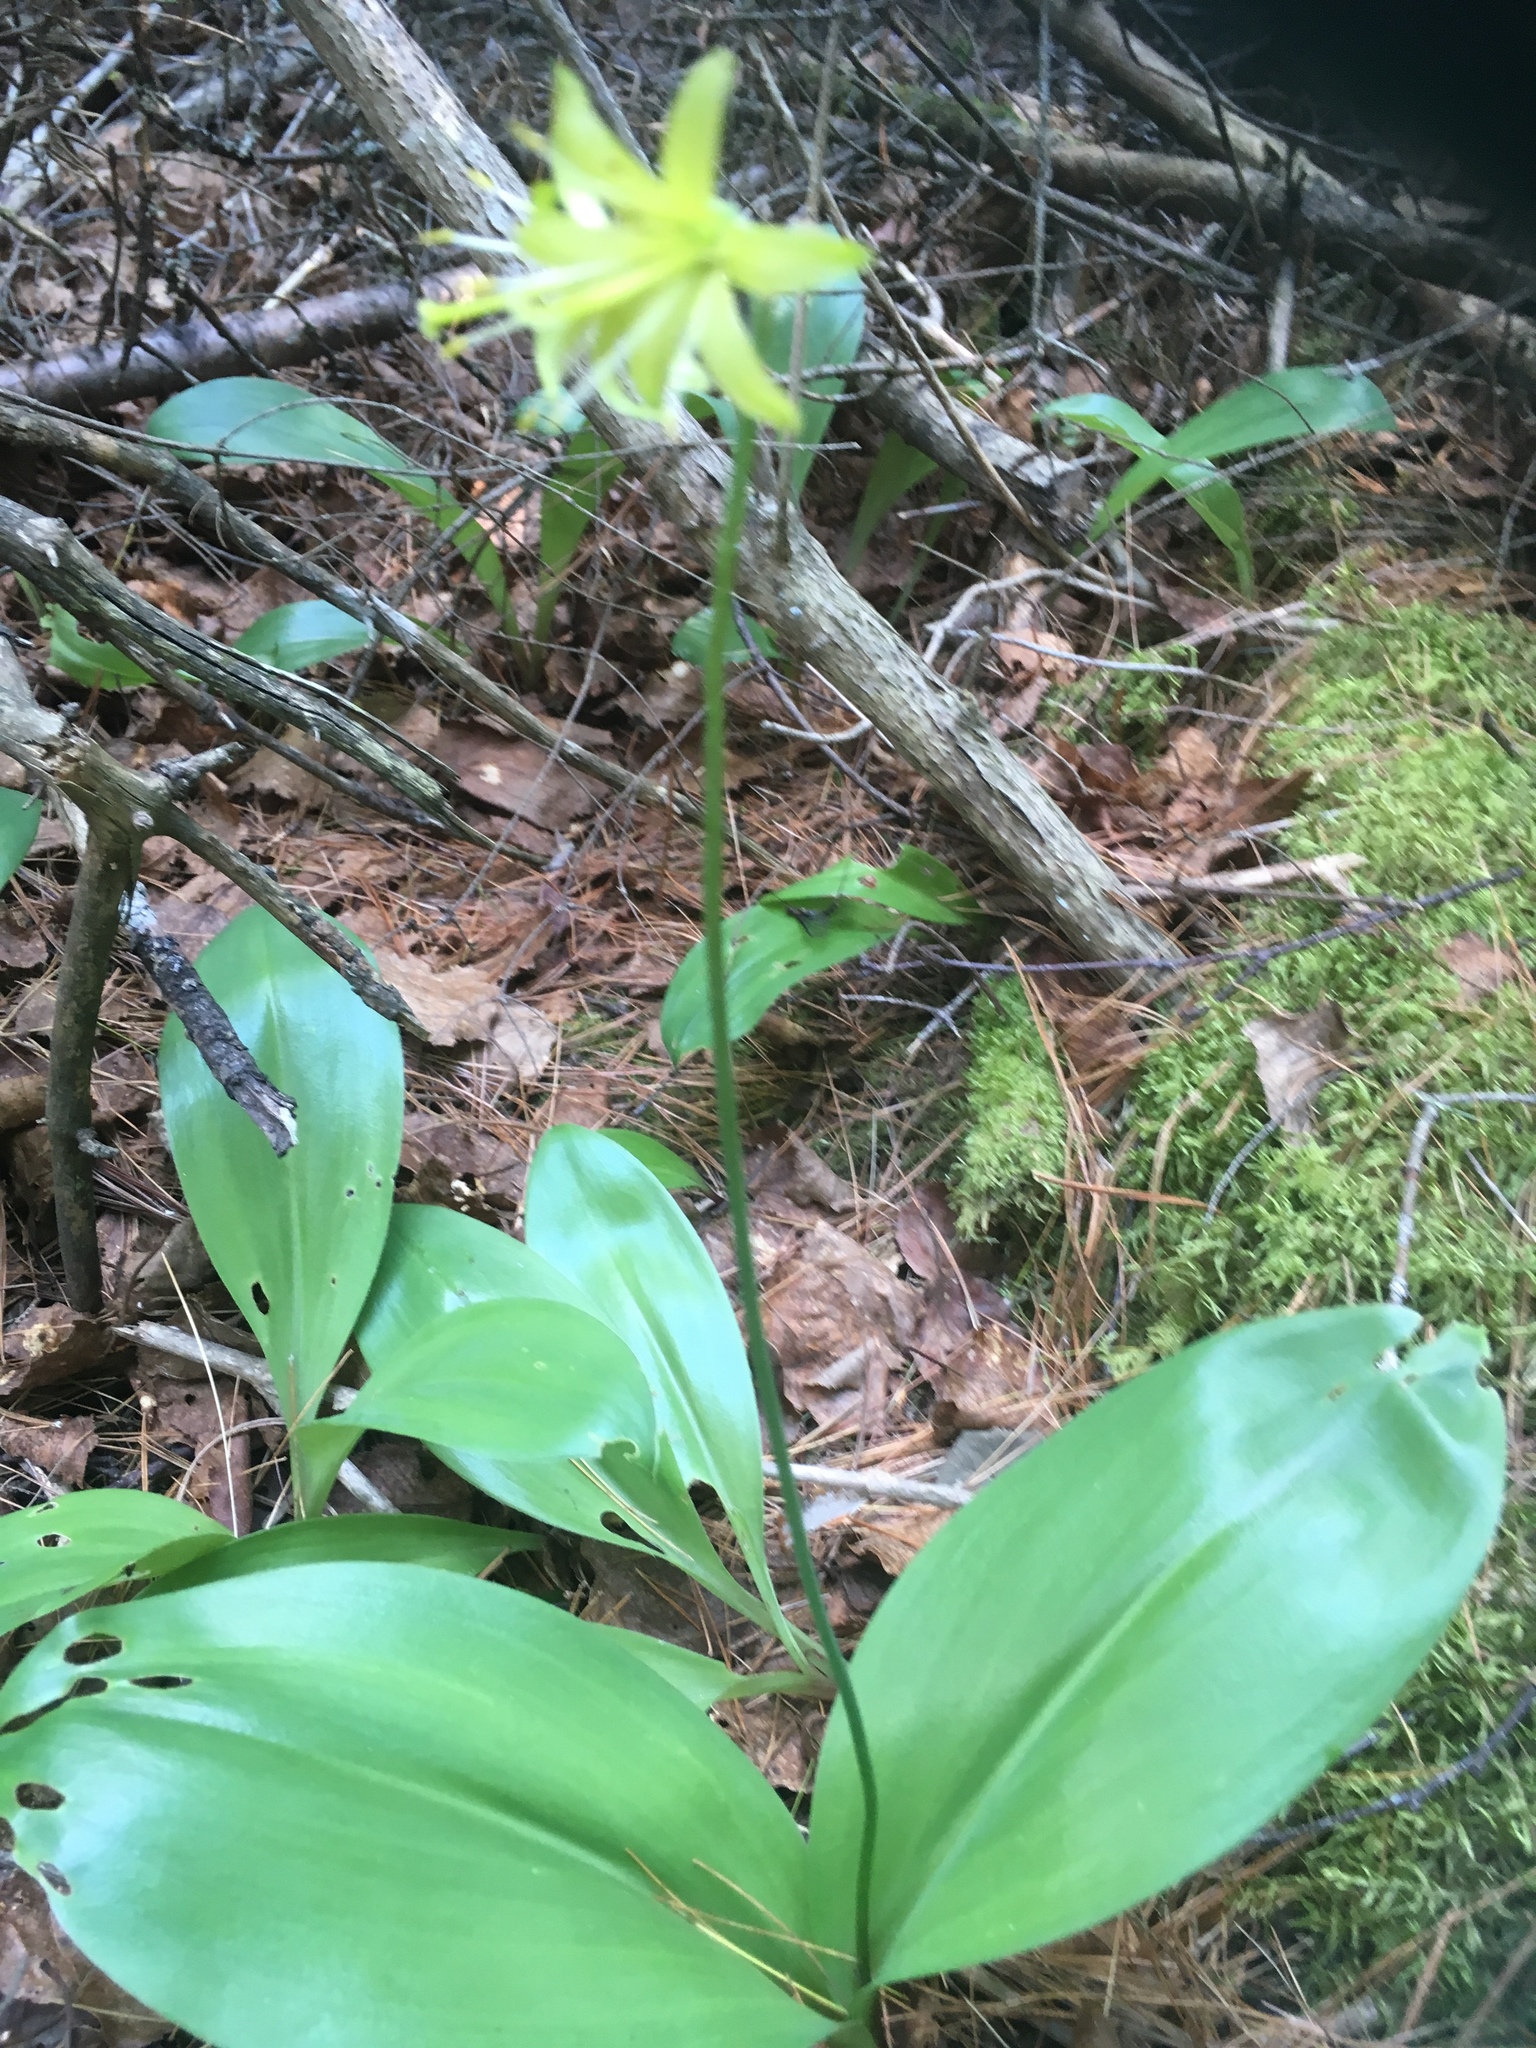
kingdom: Plantae
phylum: Tracheophyta
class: Liliopsida
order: Liliales
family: Liliaceae
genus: Clintonia
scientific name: Clintonia borealis
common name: Yellow clintonia
